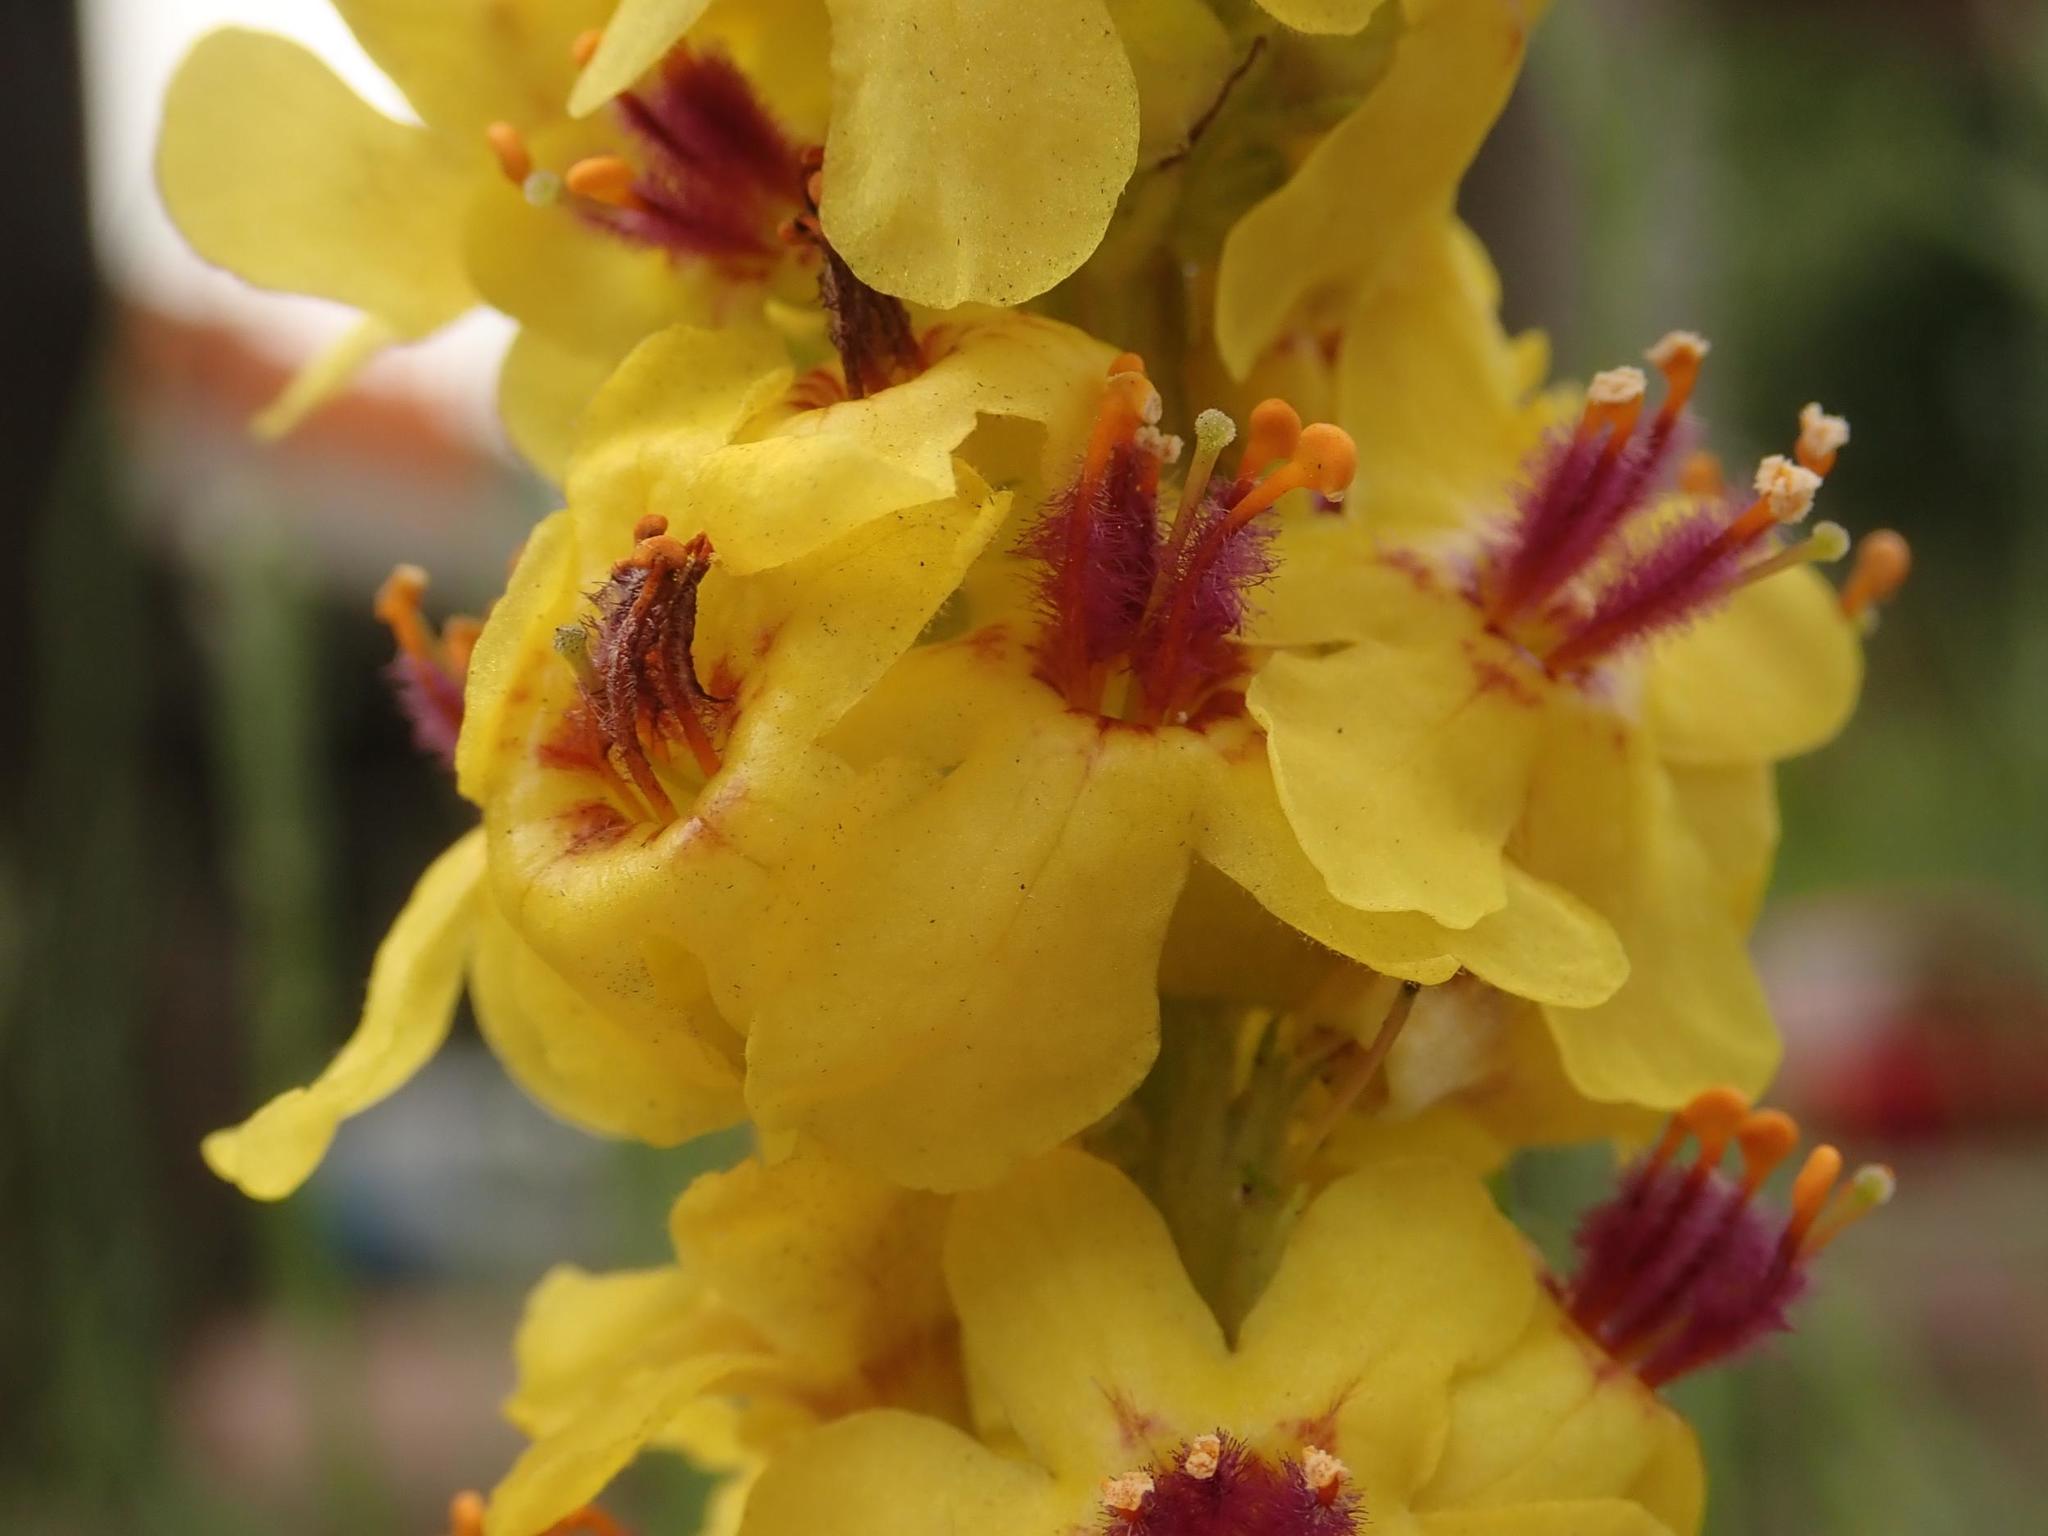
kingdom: Plantae
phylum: Tracheophyta
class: Magnoliopsida
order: Lamiales
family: Scrophulariaceae
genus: Verbascum
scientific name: Verbascum nigrum
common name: Dark mullein
